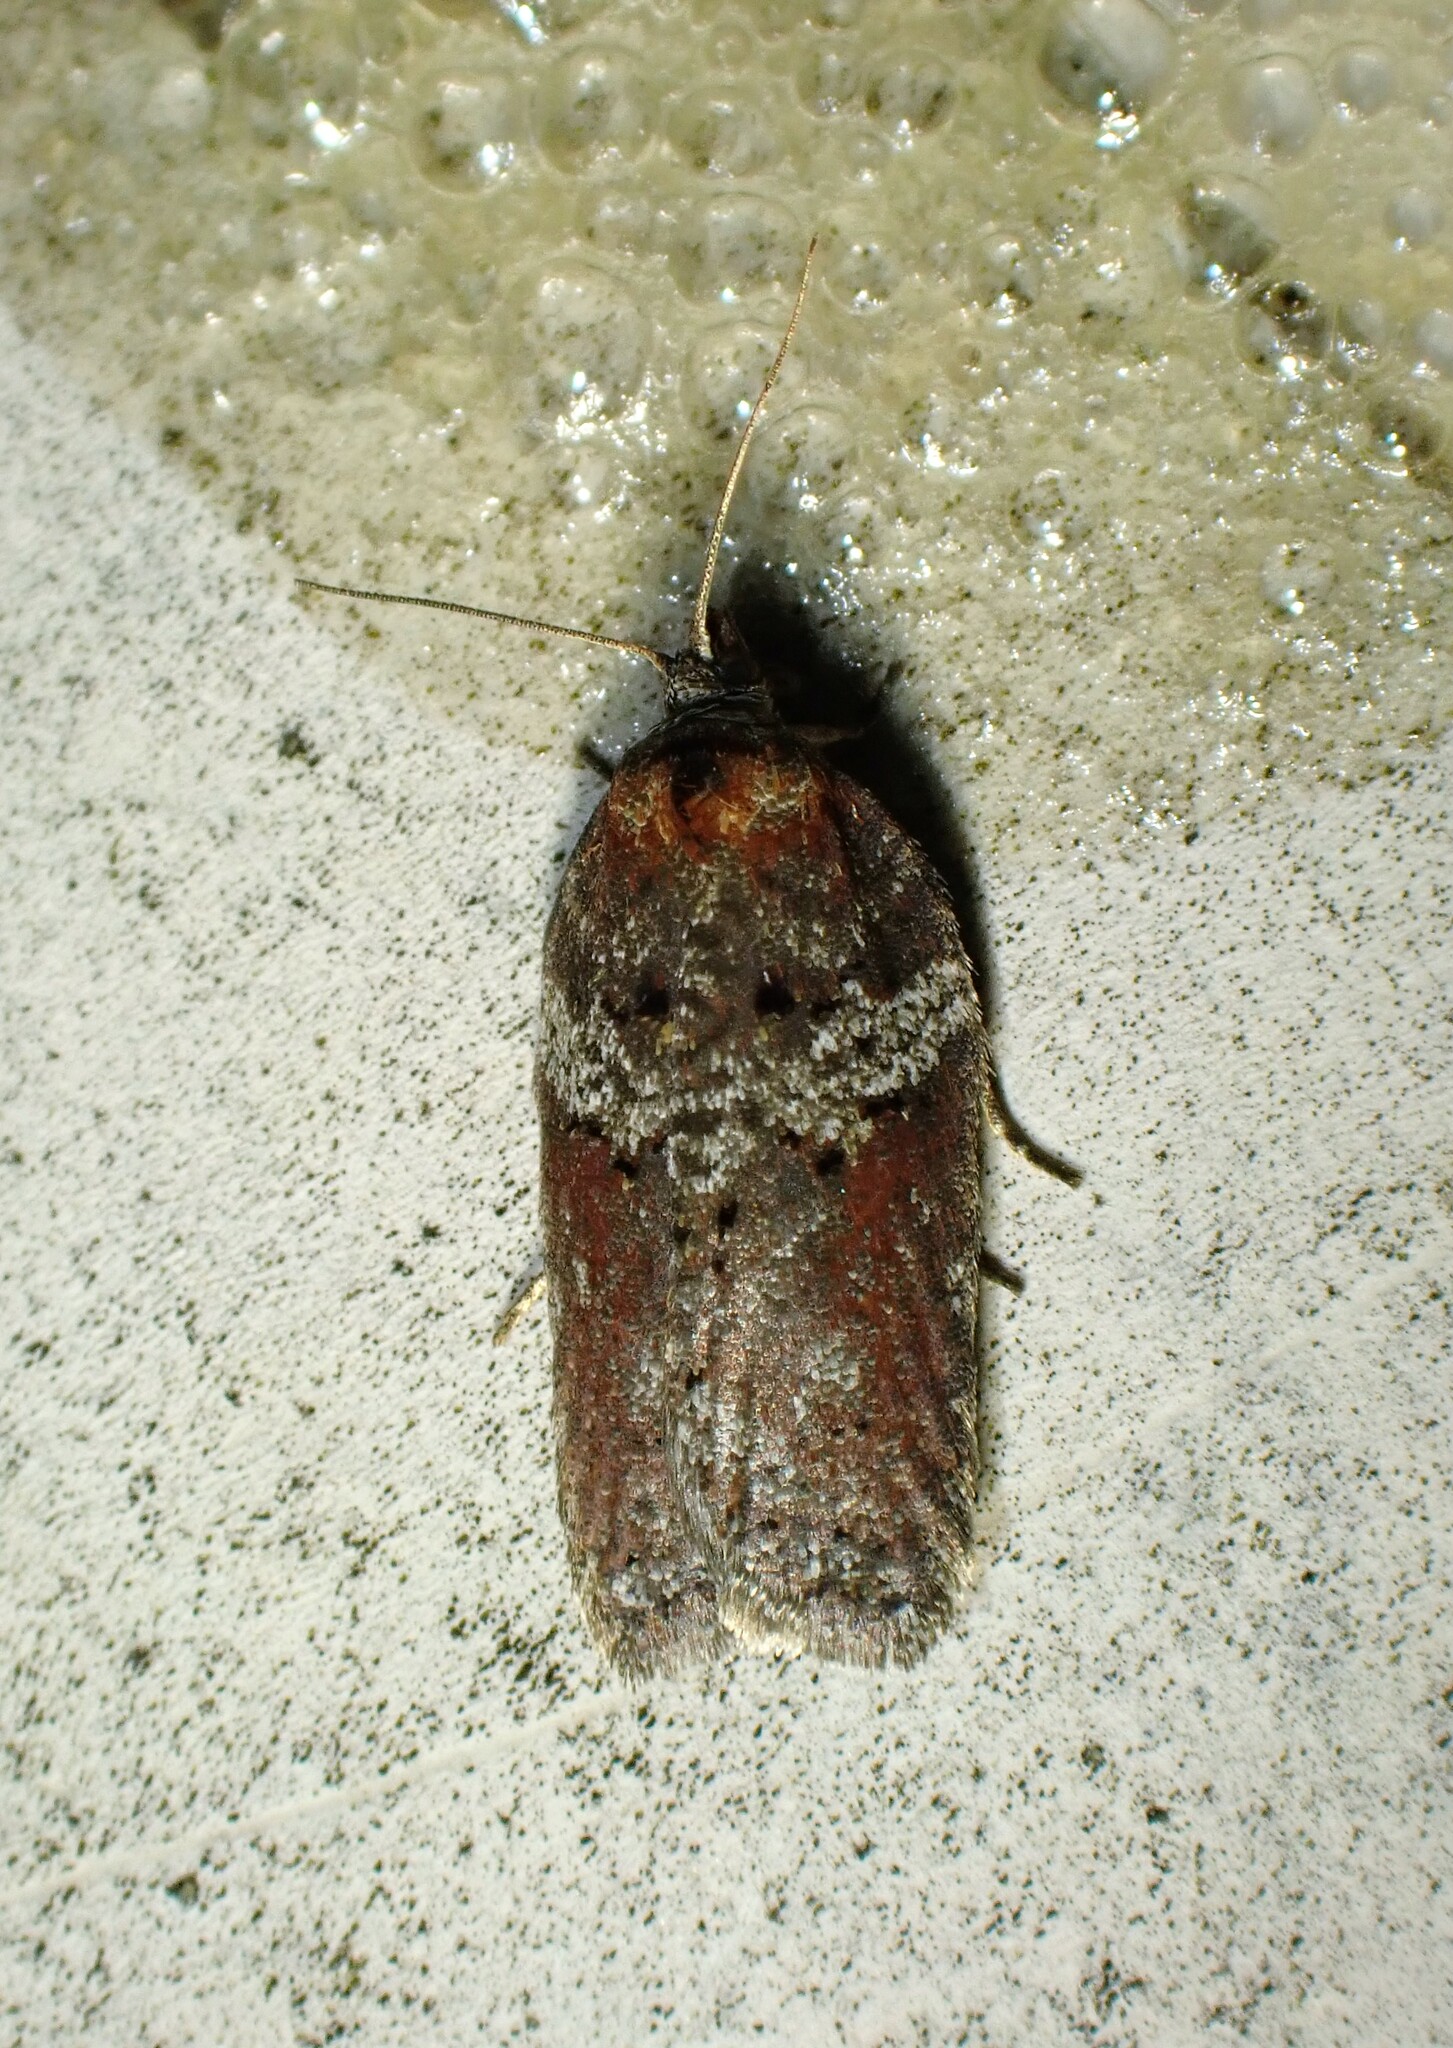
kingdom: Animalia
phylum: Arthropoda
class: Insecta
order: Lepidoptera
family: Tortricidae
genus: Acleris
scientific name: Acleris celiana
